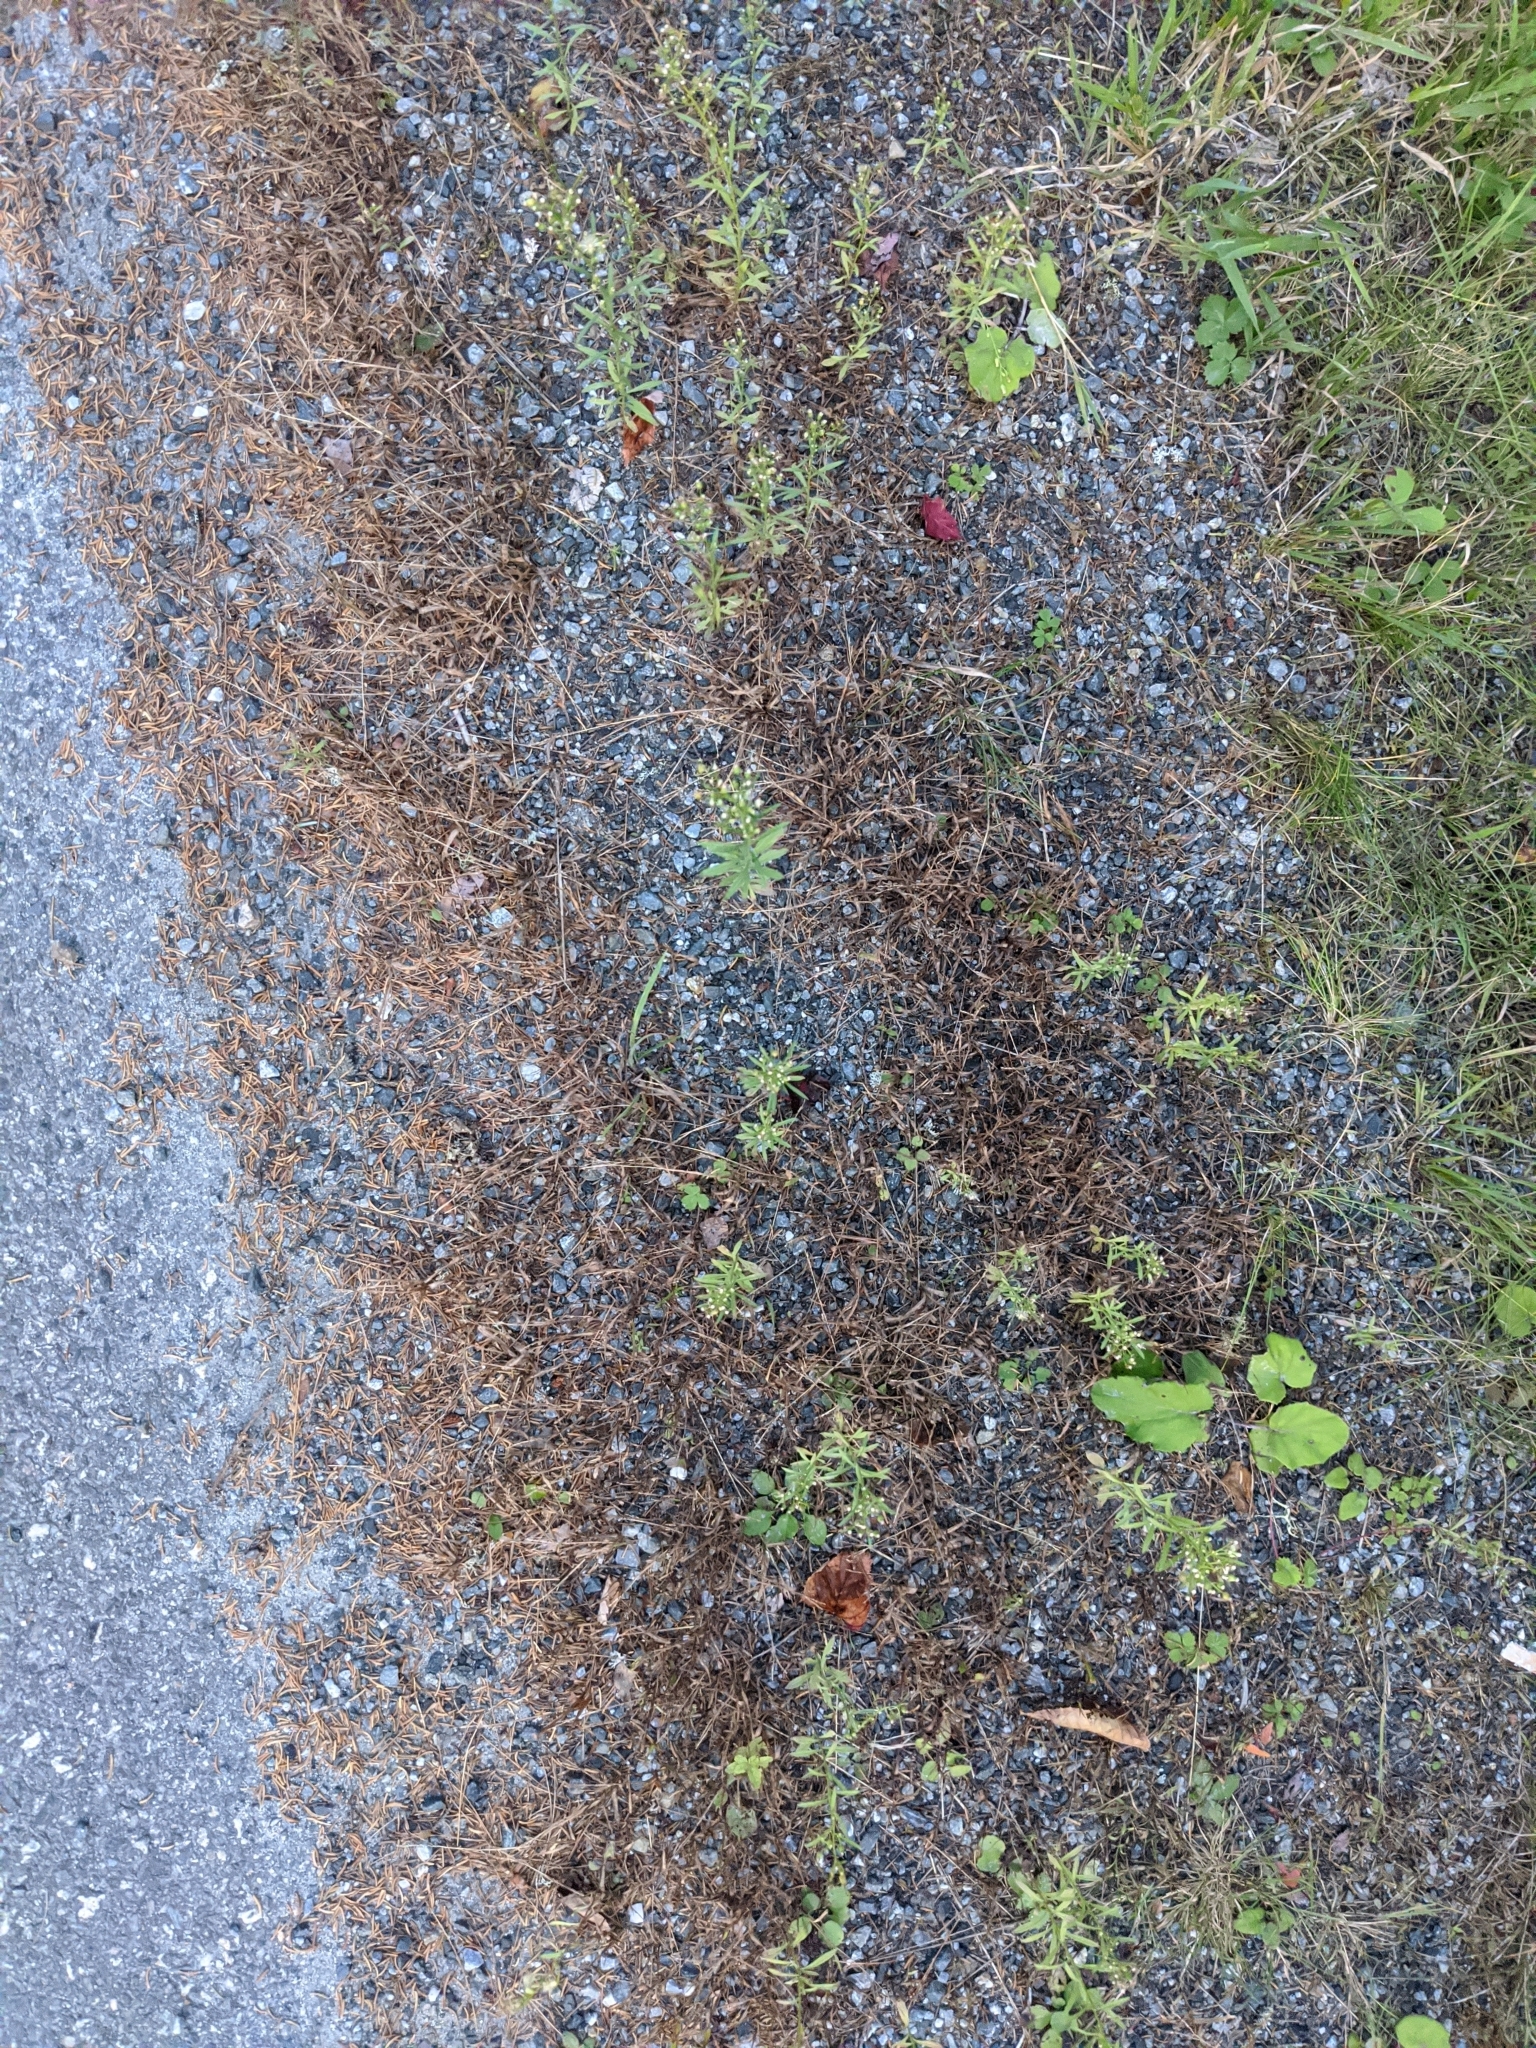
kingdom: Plantae
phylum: Tracheophyta
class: Magnoliopsida
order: Asterales
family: Asteraceae
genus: Erigeron
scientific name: Erigeron canadensis
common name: Canadian fleabane
